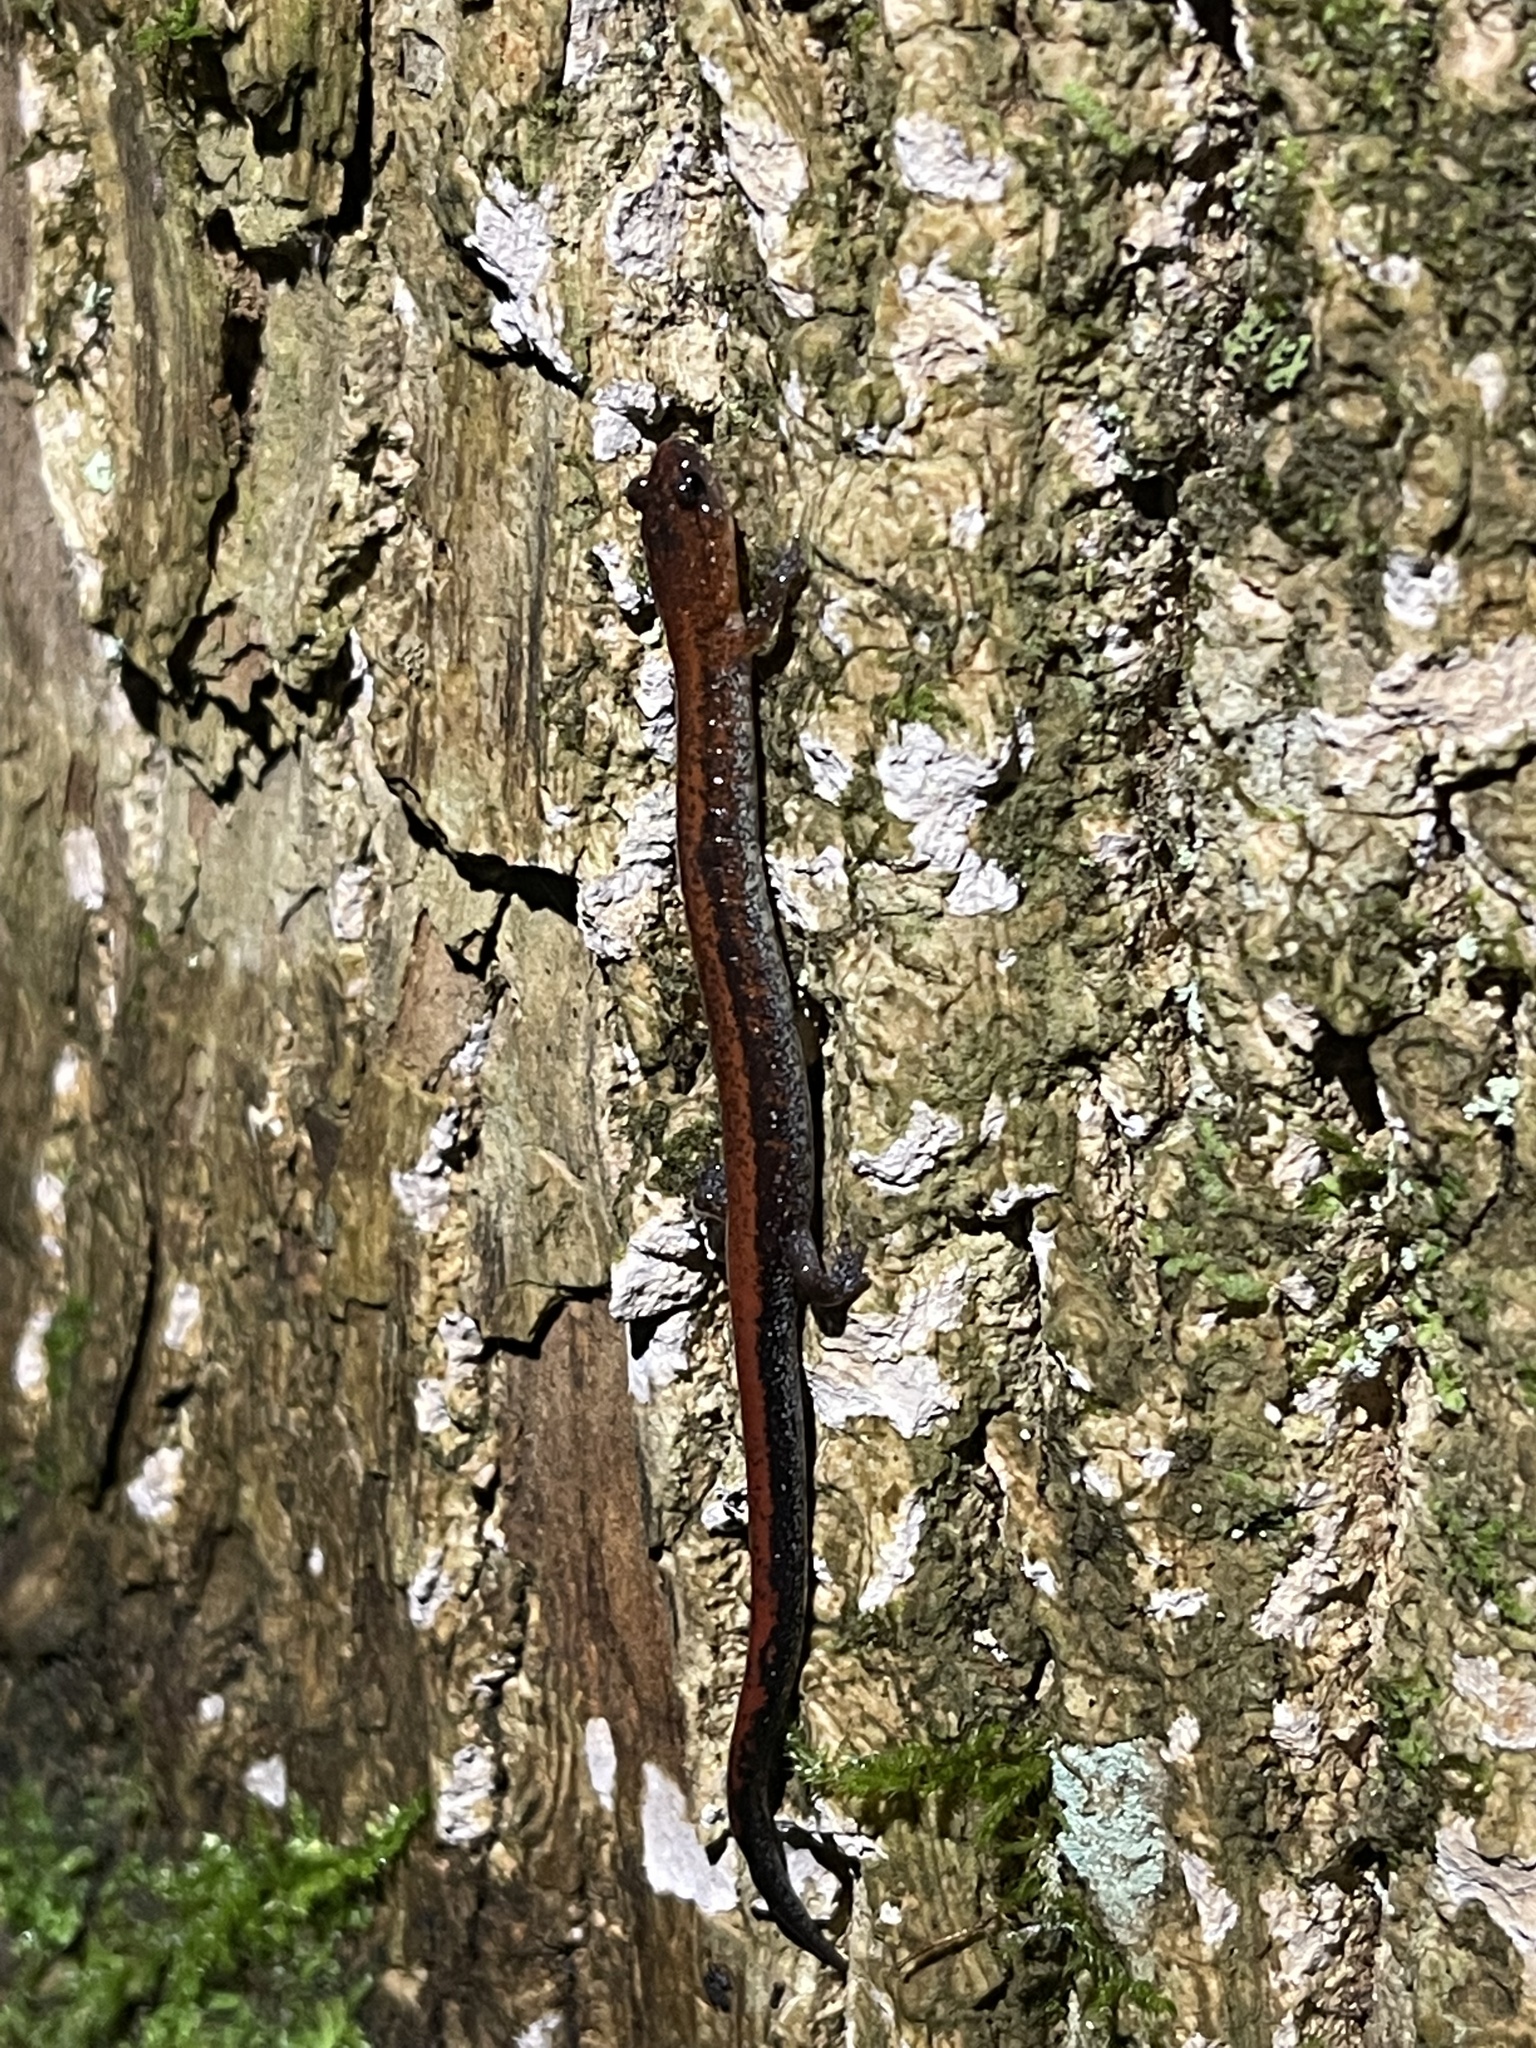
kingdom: Animalia
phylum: Chordata
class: Amphibia
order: Caudata
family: Plethodontidae
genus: Plethodon
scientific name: Plethodon cinereus
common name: Redback salamander
